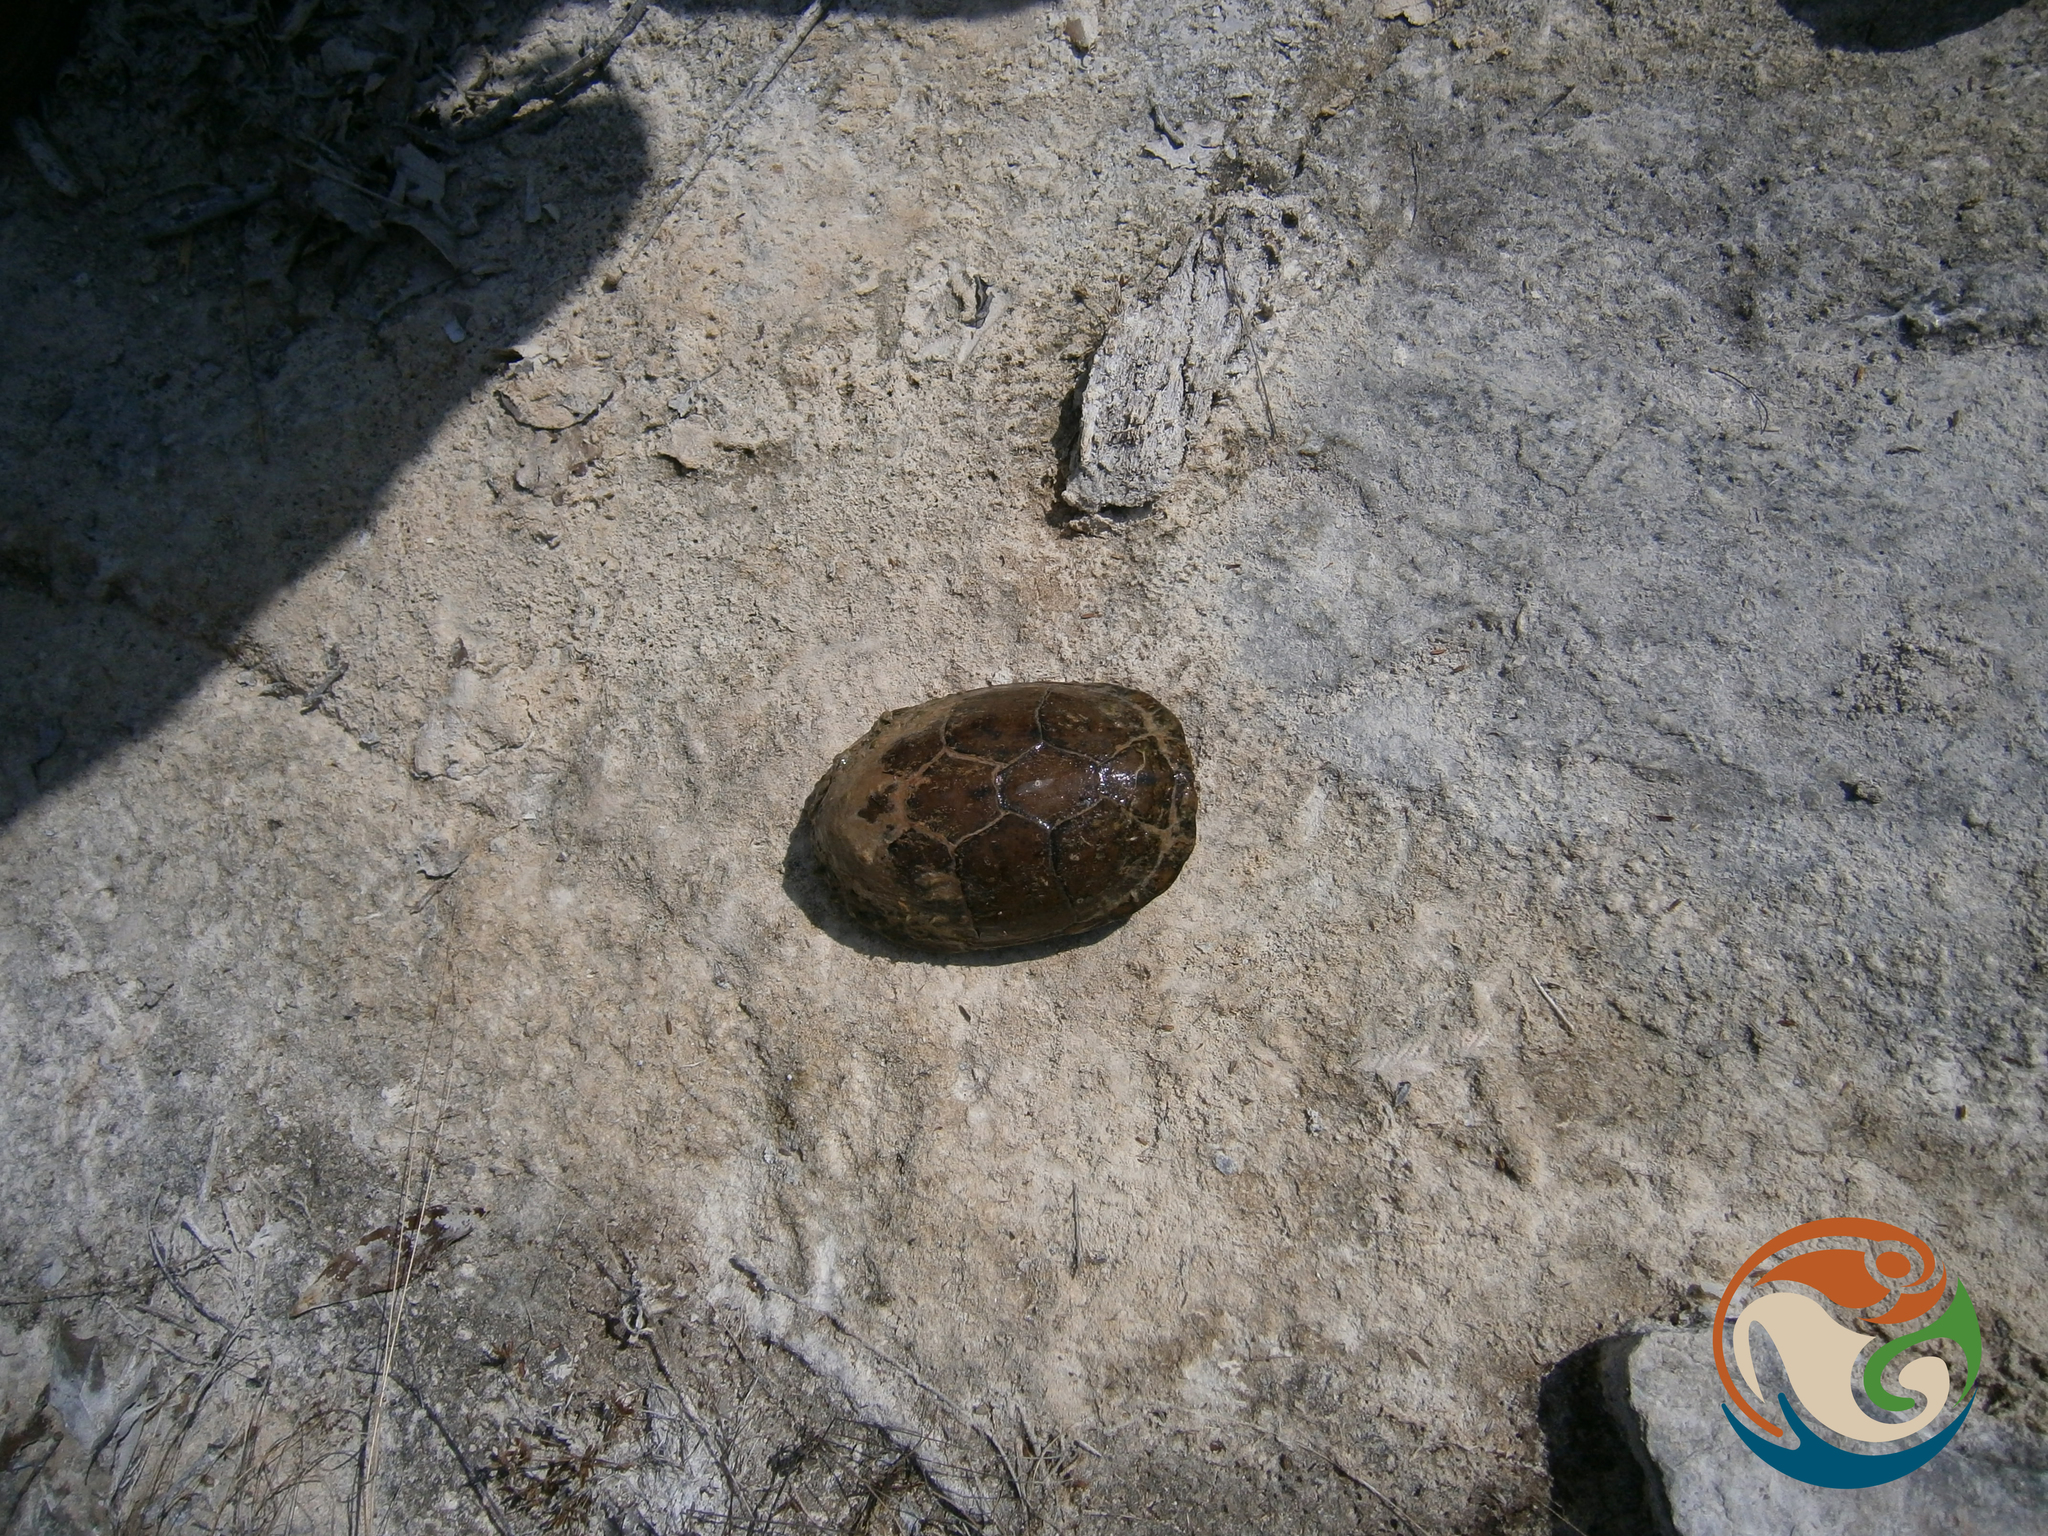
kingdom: Animalia
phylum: Chordata
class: Testudines
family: Kinosternidae
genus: Kinosternon
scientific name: Kinosternon integrum
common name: Mexican mud turtle
